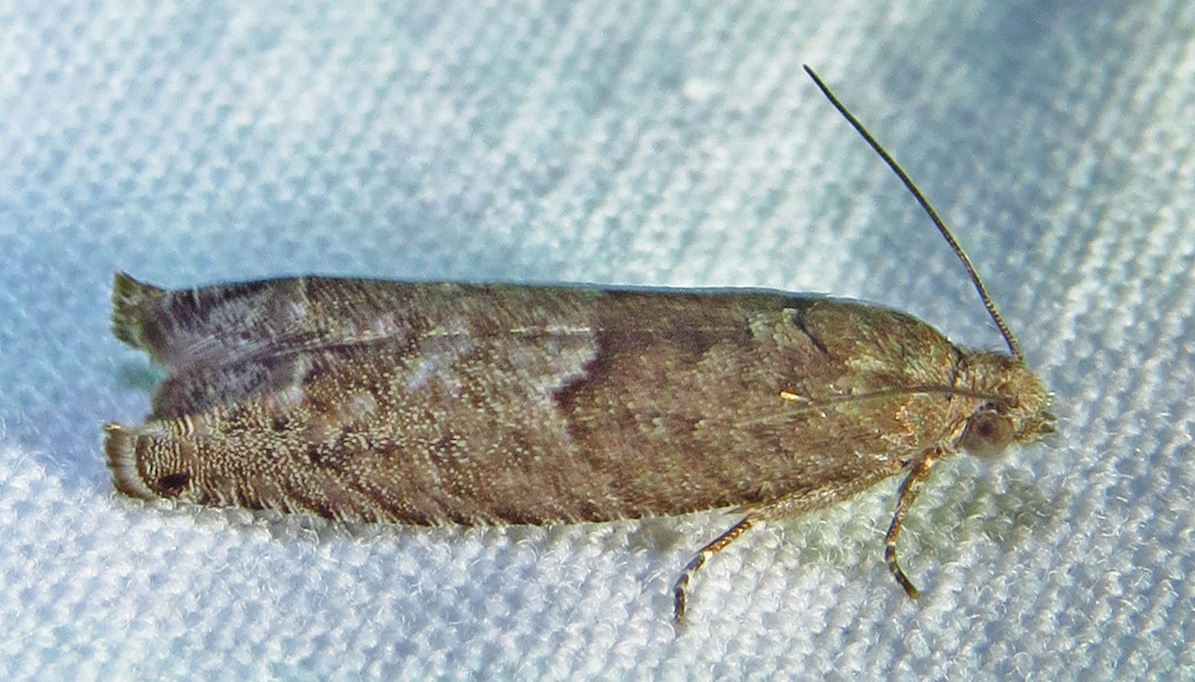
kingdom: Animalia
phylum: Arthropoda
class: Insecta
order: Lepidoptera
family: Tortricidae
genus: Eucosma
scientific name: Eucosma parmatana
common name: Aster eucosma moth
